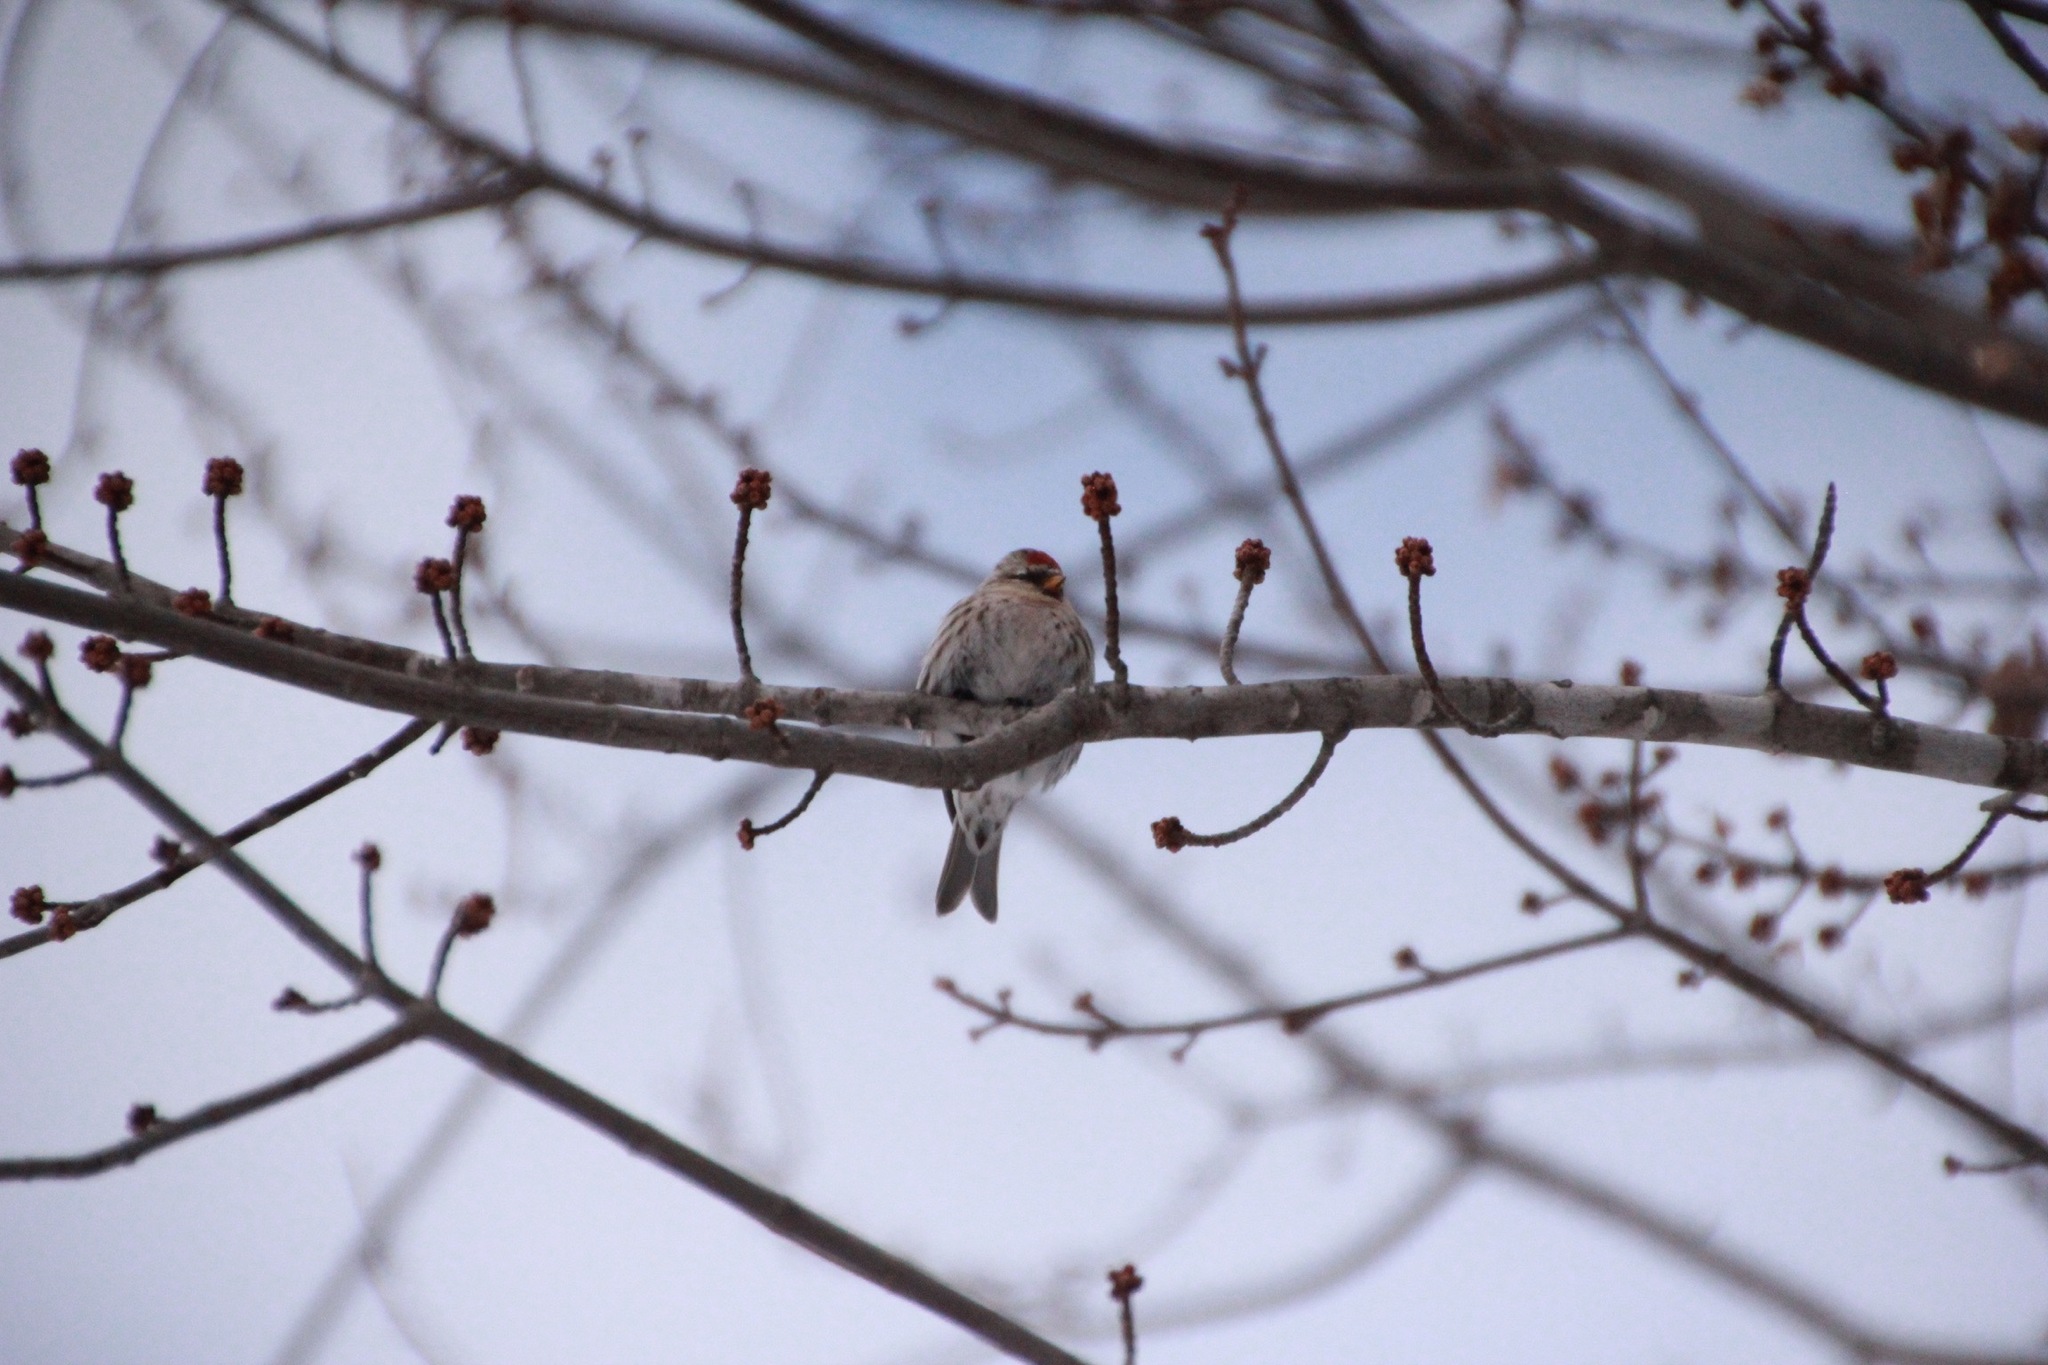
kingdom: Animalia
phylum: Chordata
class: Aves
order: Passeriformes
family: Fringillidae
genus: Acanthis
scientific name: Acanthis flammea
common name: Common redpoll
